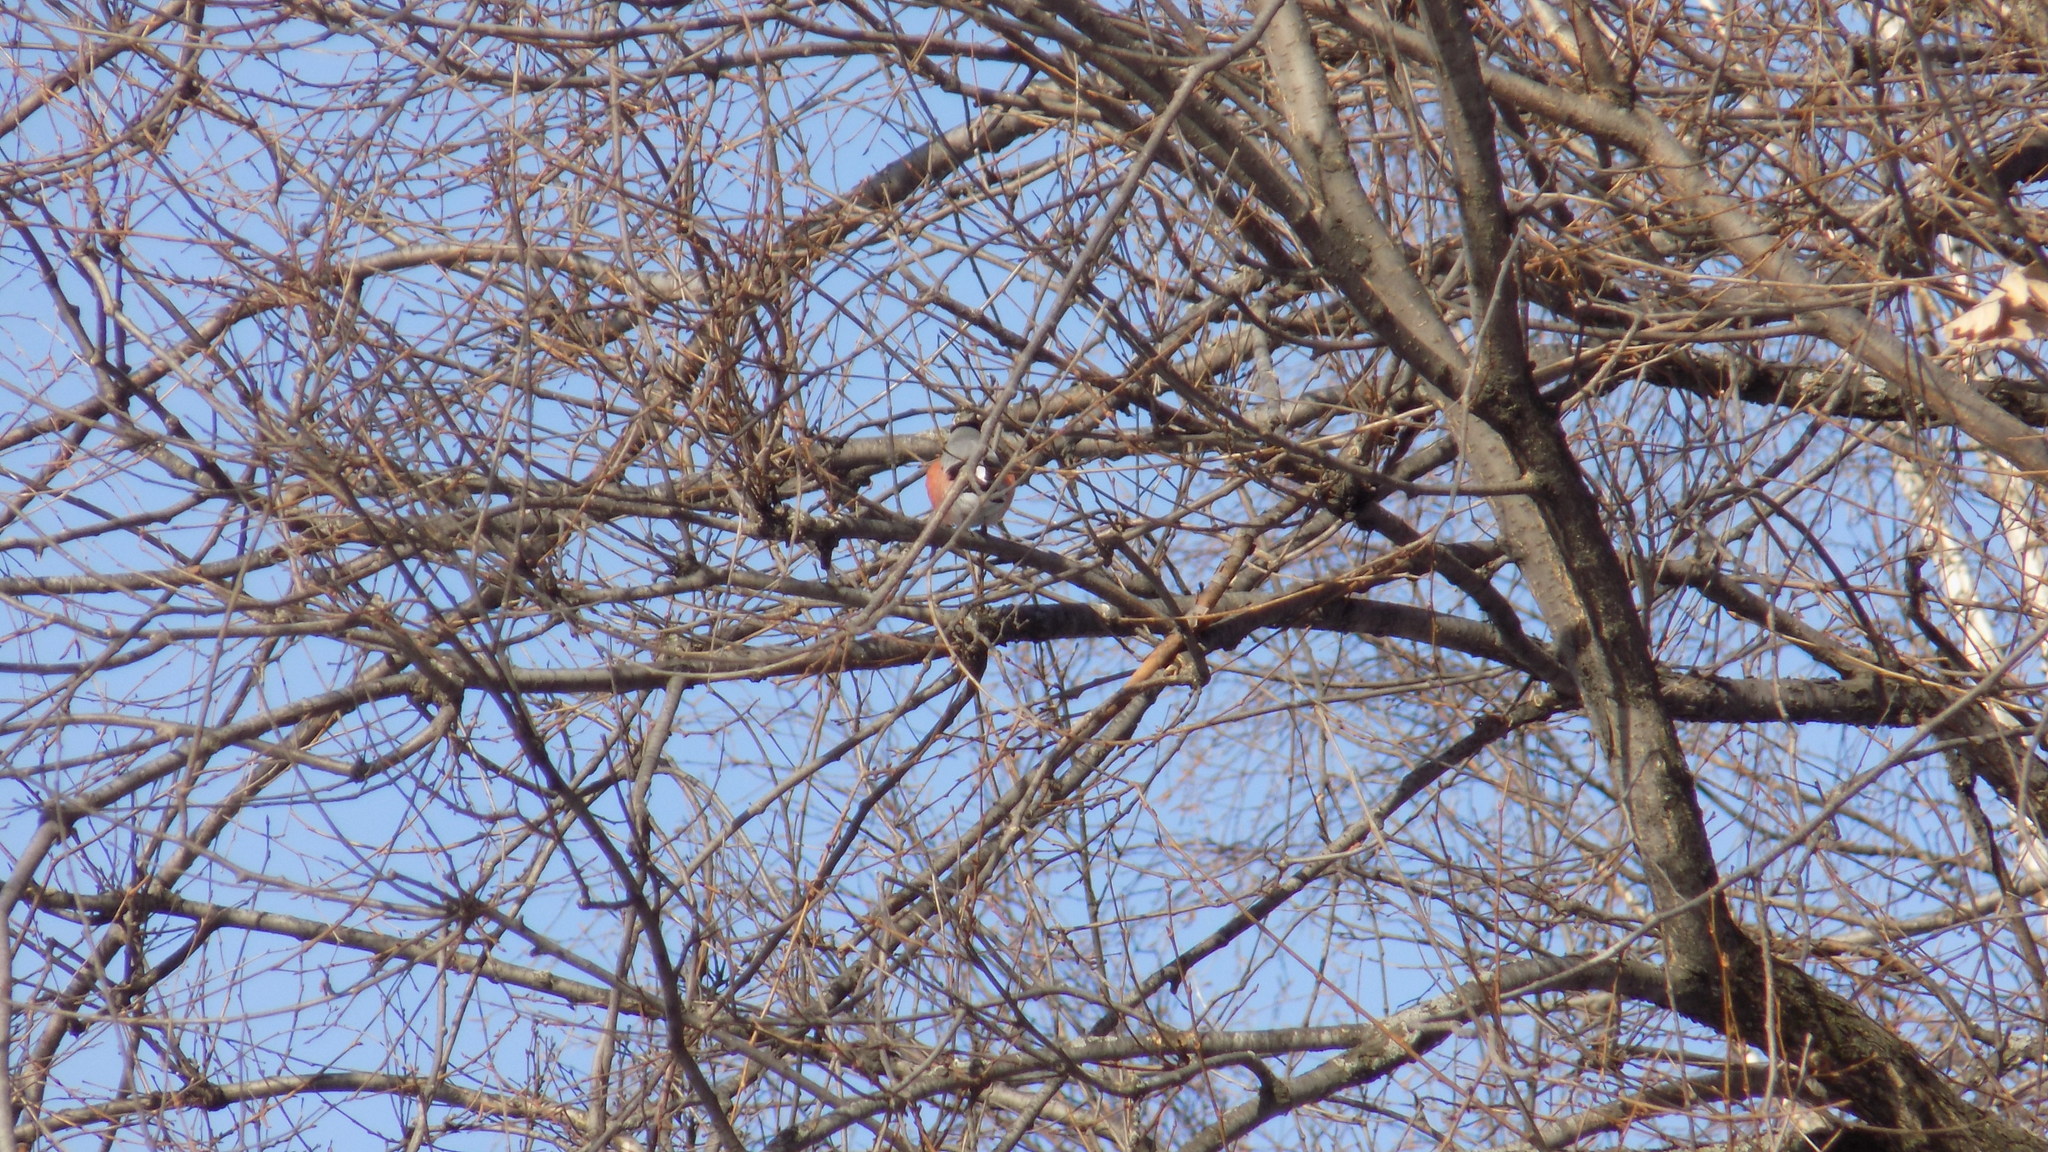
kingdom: Animalia
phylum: Chordata
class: Aves
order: Passeriformes
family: Fringillidae
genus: Pyrrhula
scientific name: Pyrrhula pyrrhula
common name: Eurasian bullfinch
